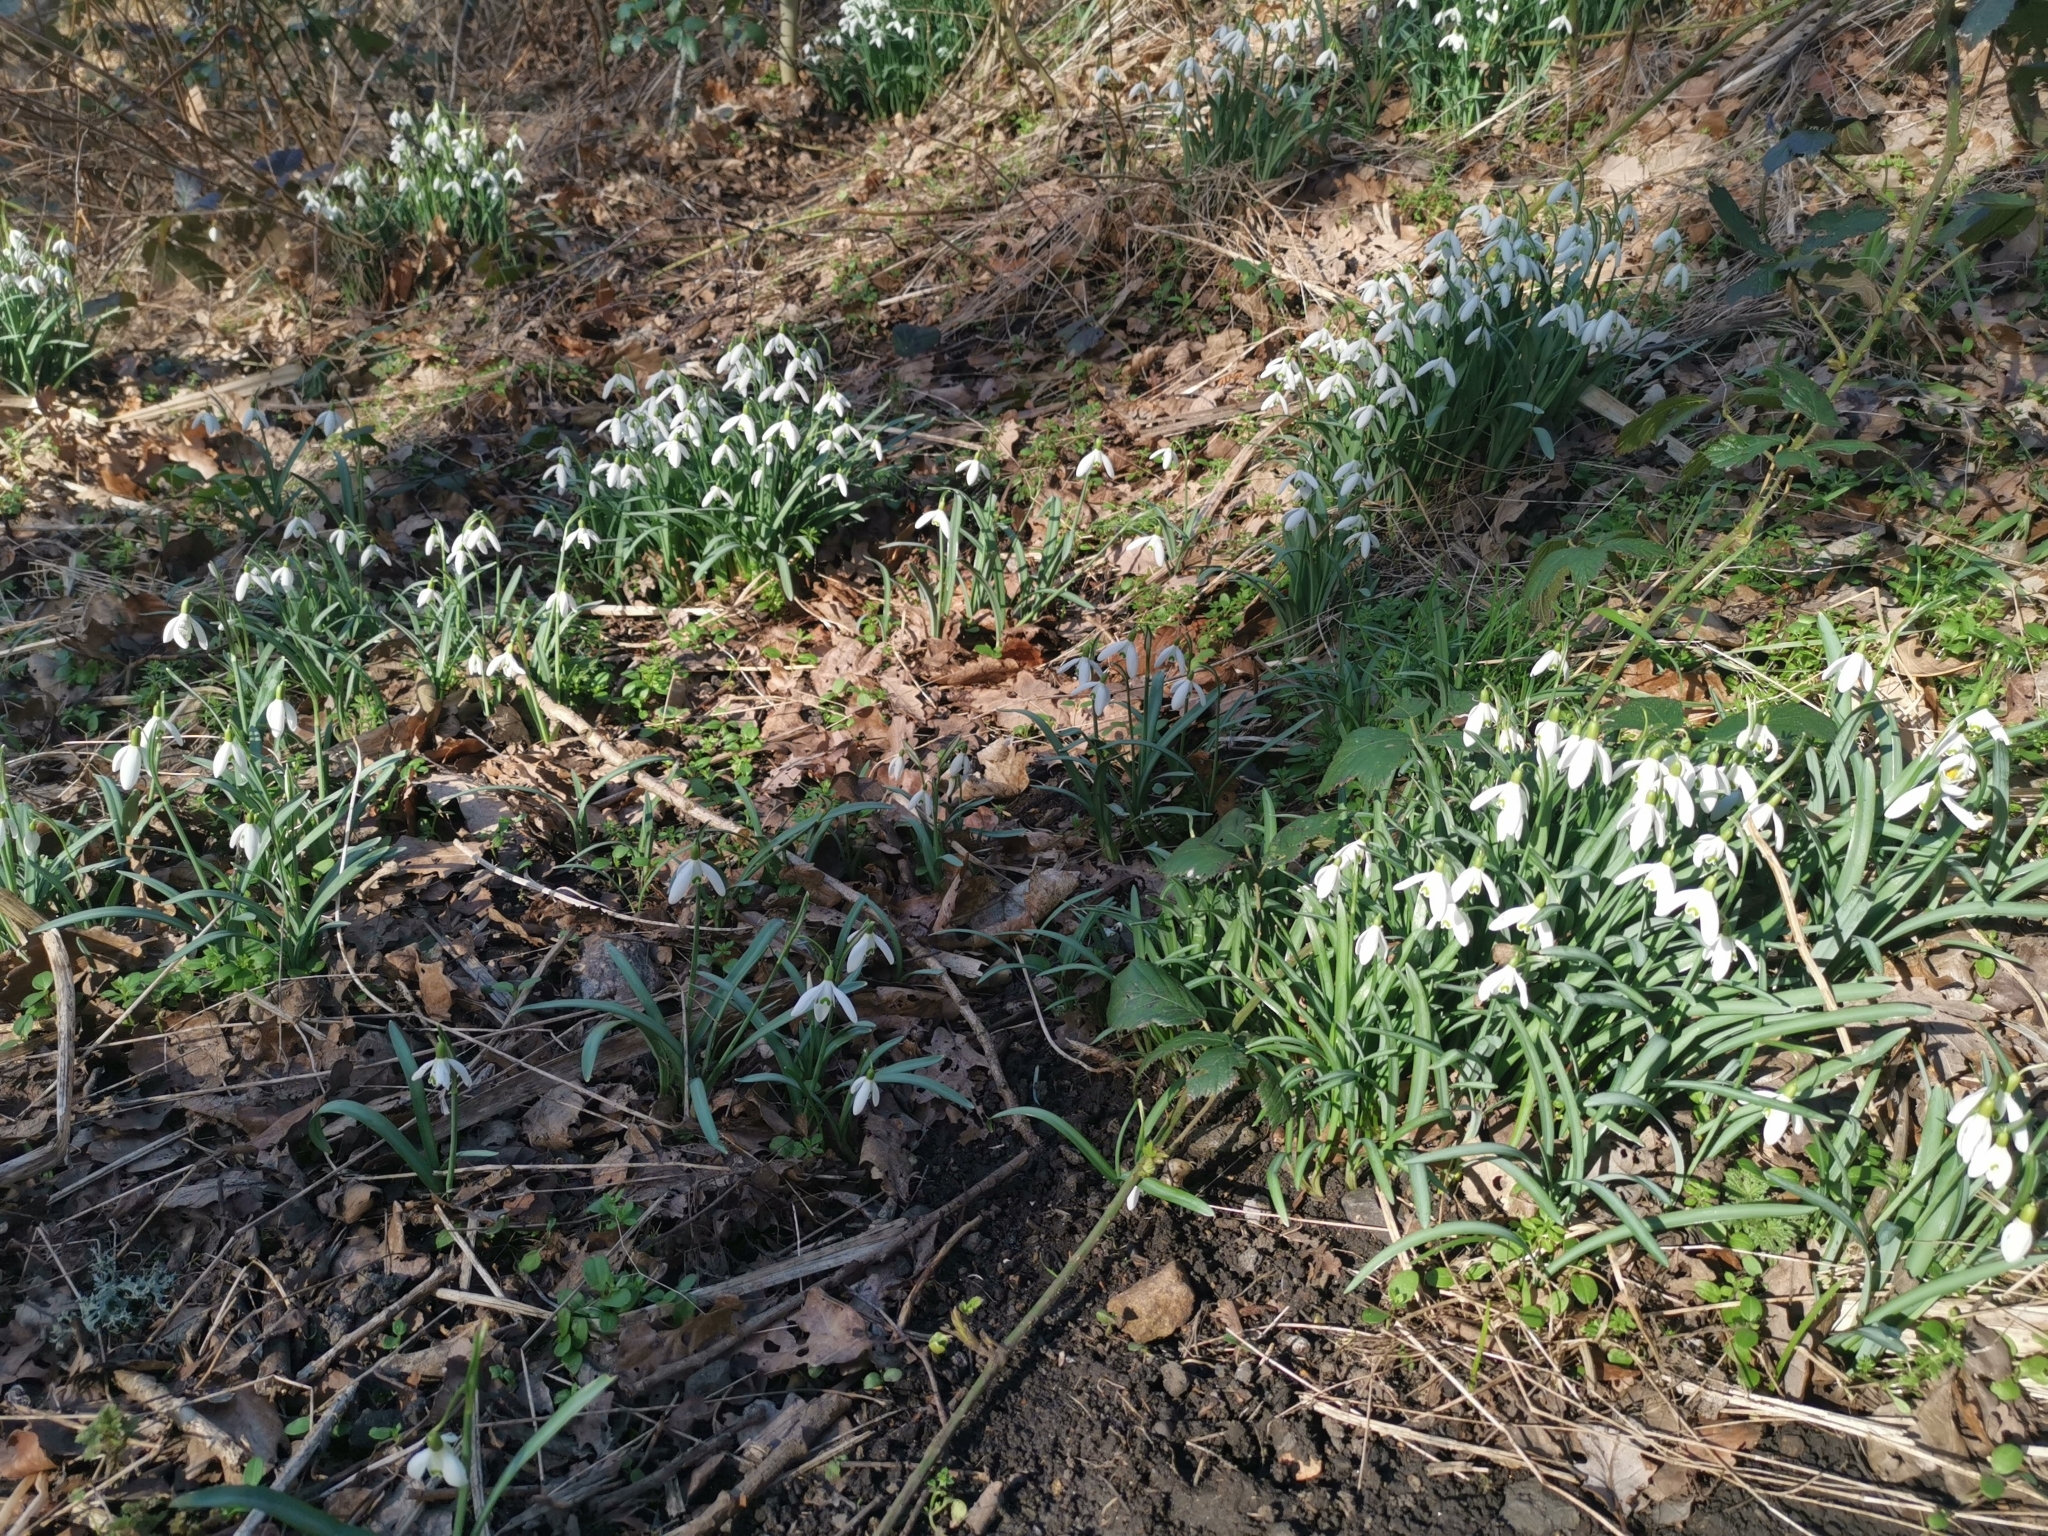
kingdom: Plantae
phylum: Tracheophyta
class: Liliopsida
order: Asparagales
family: Amaryllidaceae
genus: Galanthus
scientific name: Galanthus nivalis
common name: Snowdrop
